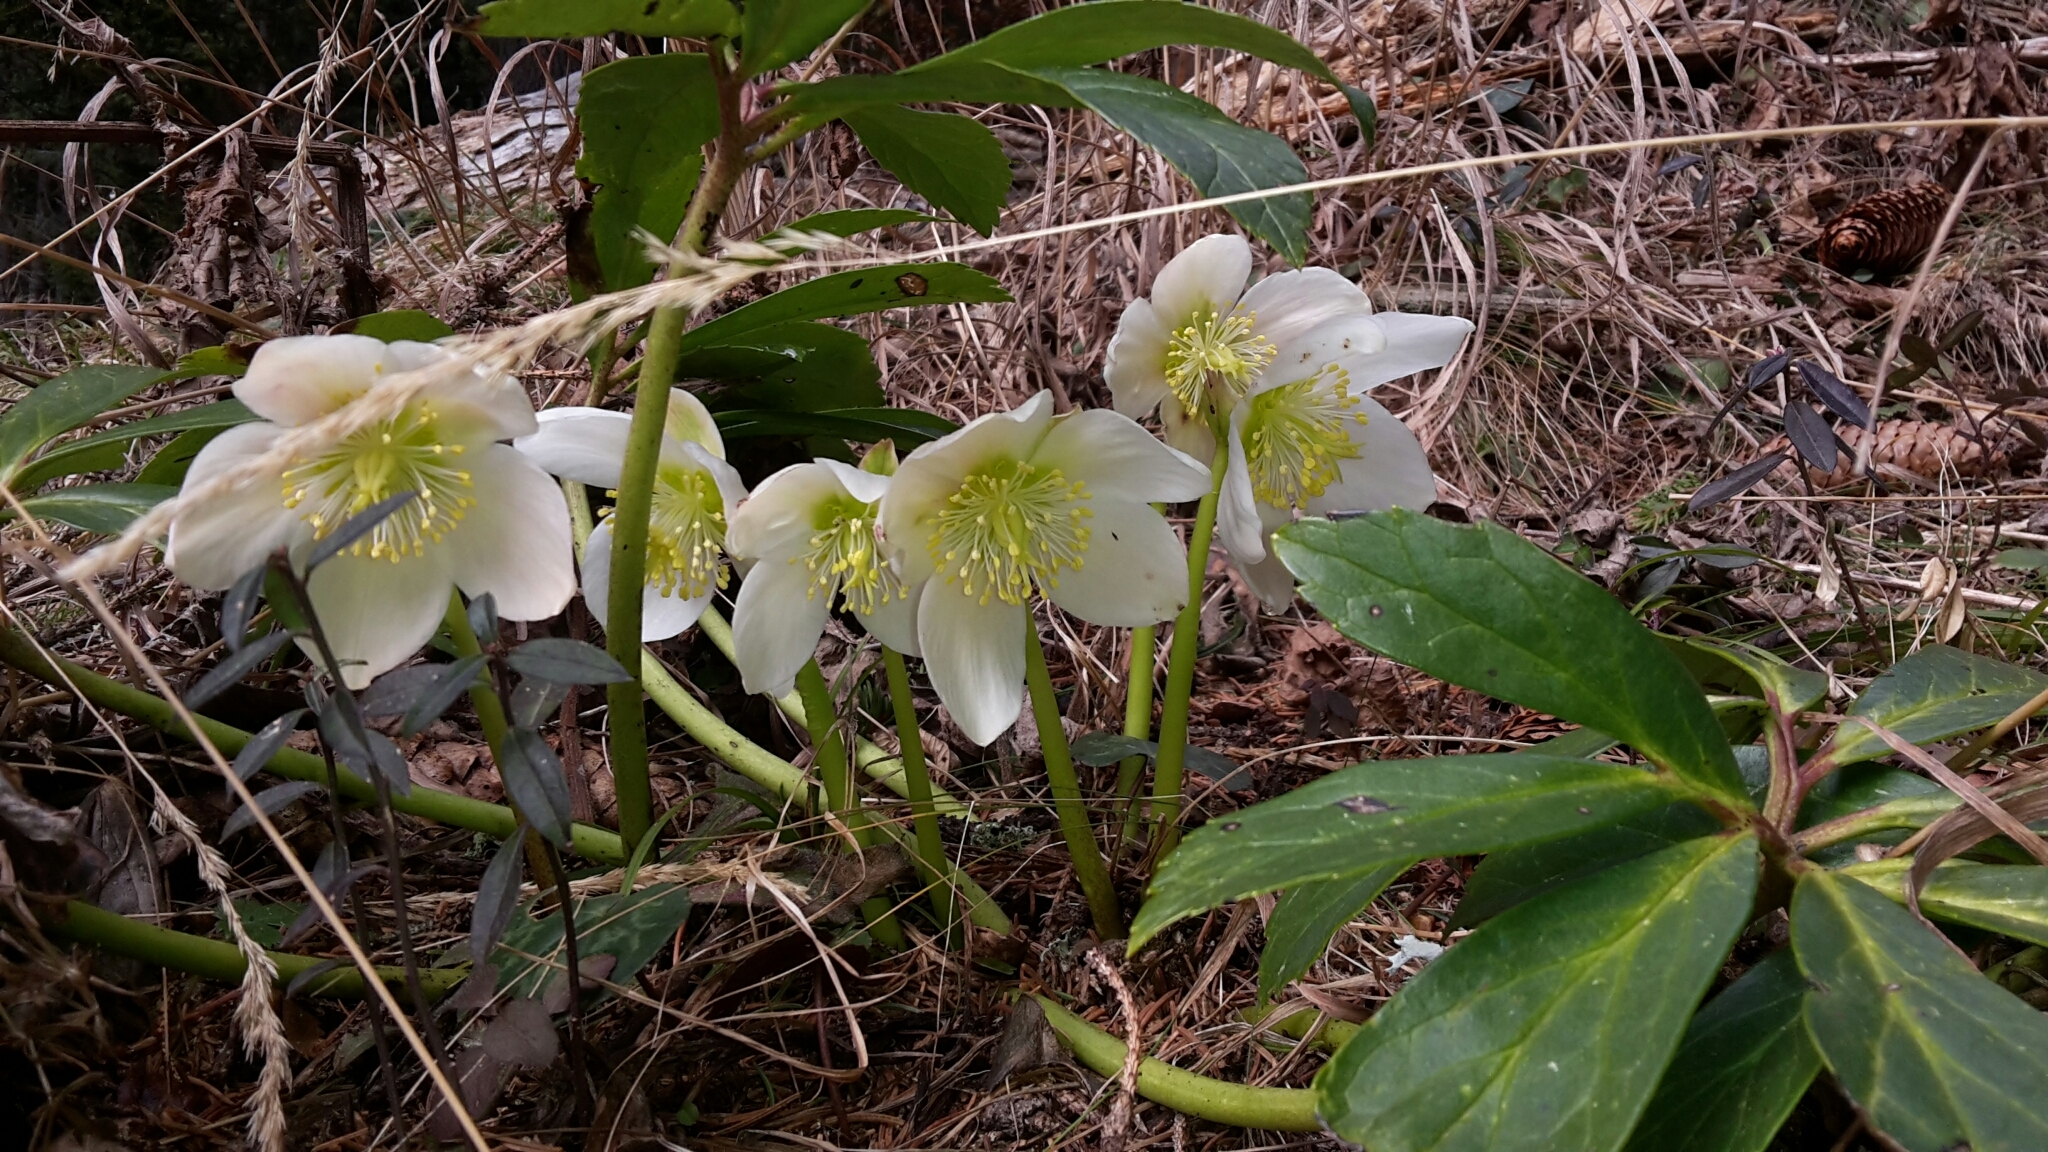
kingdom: Plantae
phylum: Tracheophyta
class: Magnoliopsida
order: Ranunculales
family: Ranunculaceae
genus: Helleborus
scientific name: Helleborus niger
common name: Black hellebore
